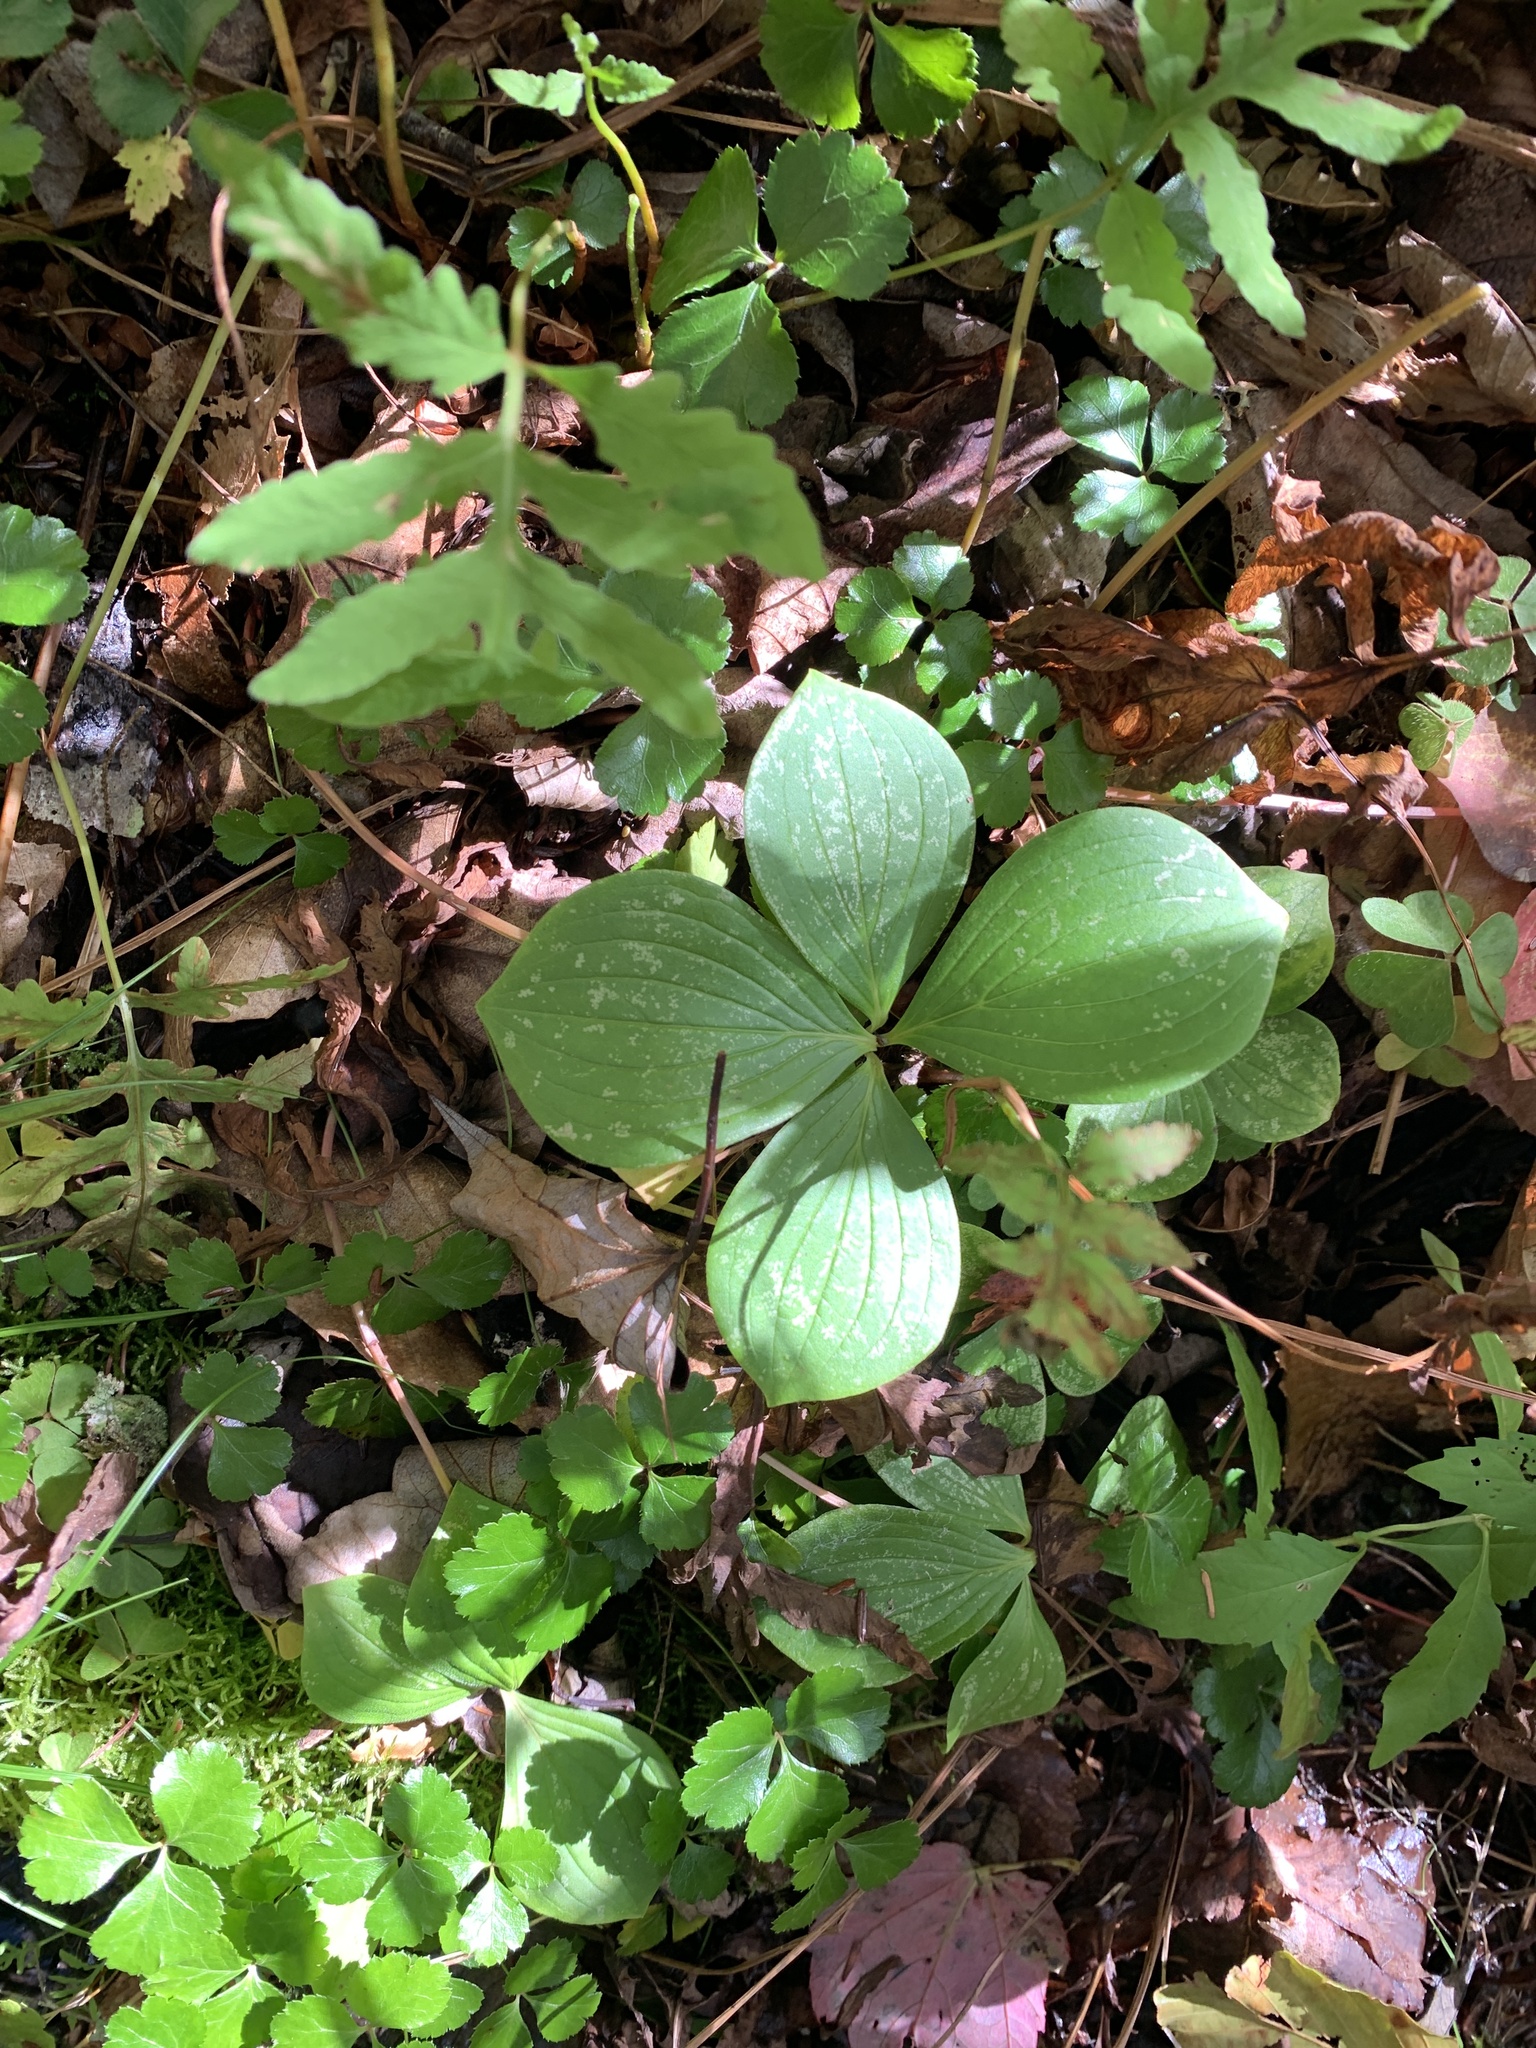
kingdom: Plantae
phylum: Tracheophyta
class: Magnoliopsida
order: Cornales
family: Cornaceae
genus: Cornus
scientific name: Cornus canadensis
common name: Creeping dogwood
